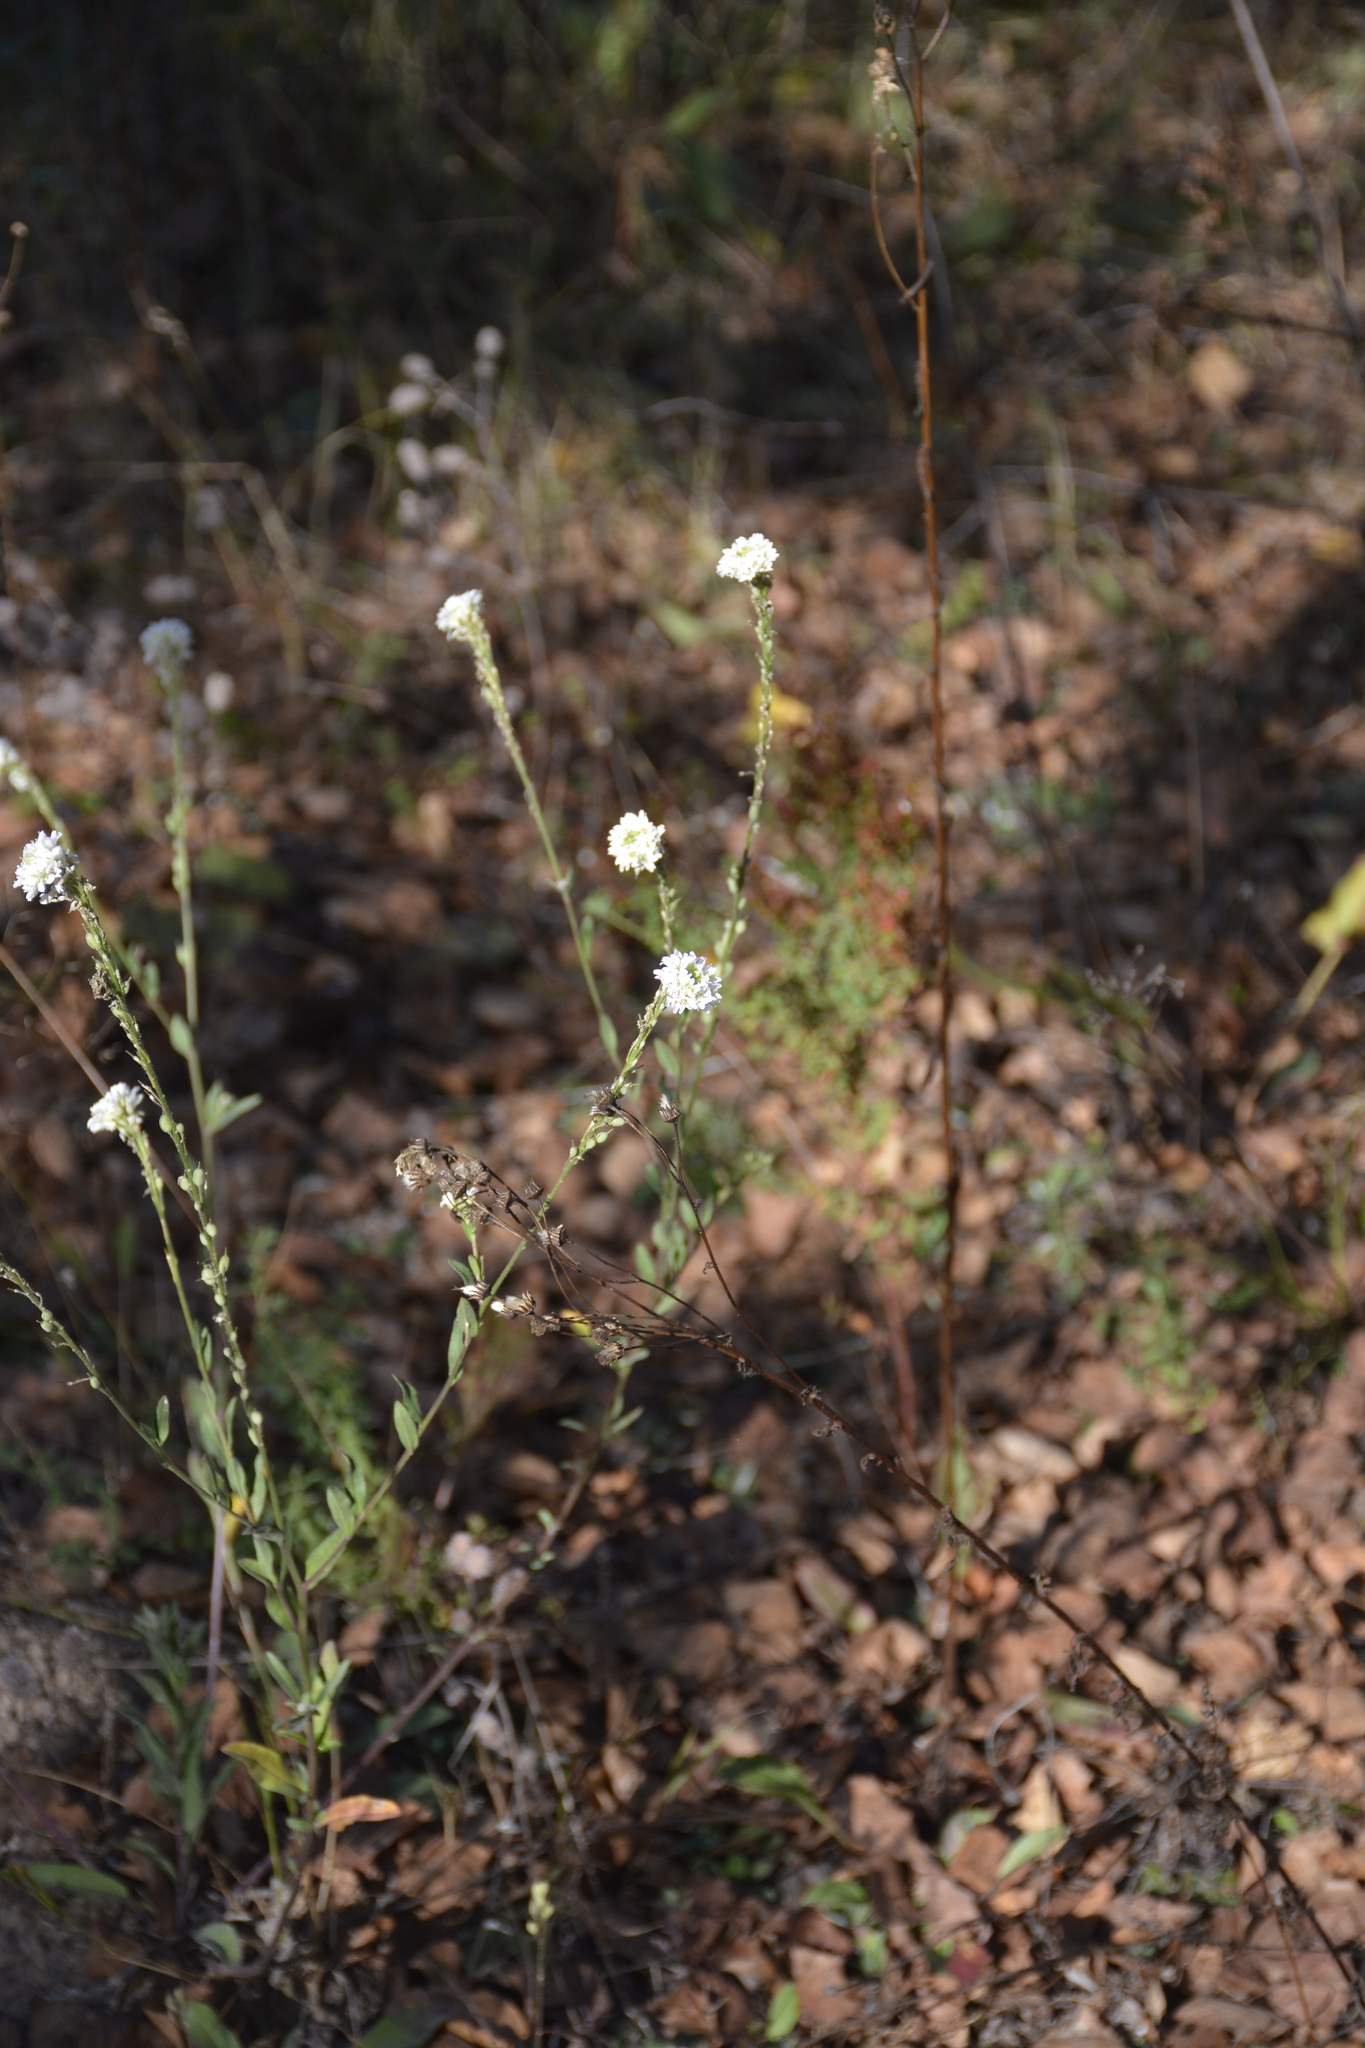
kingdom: Plantae
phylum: Tracheophyta
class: Magnoliopsida
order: Brassicales
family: Brassicaceae
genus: Berteroa
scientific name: Berteroa incana
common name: Hoary alison
